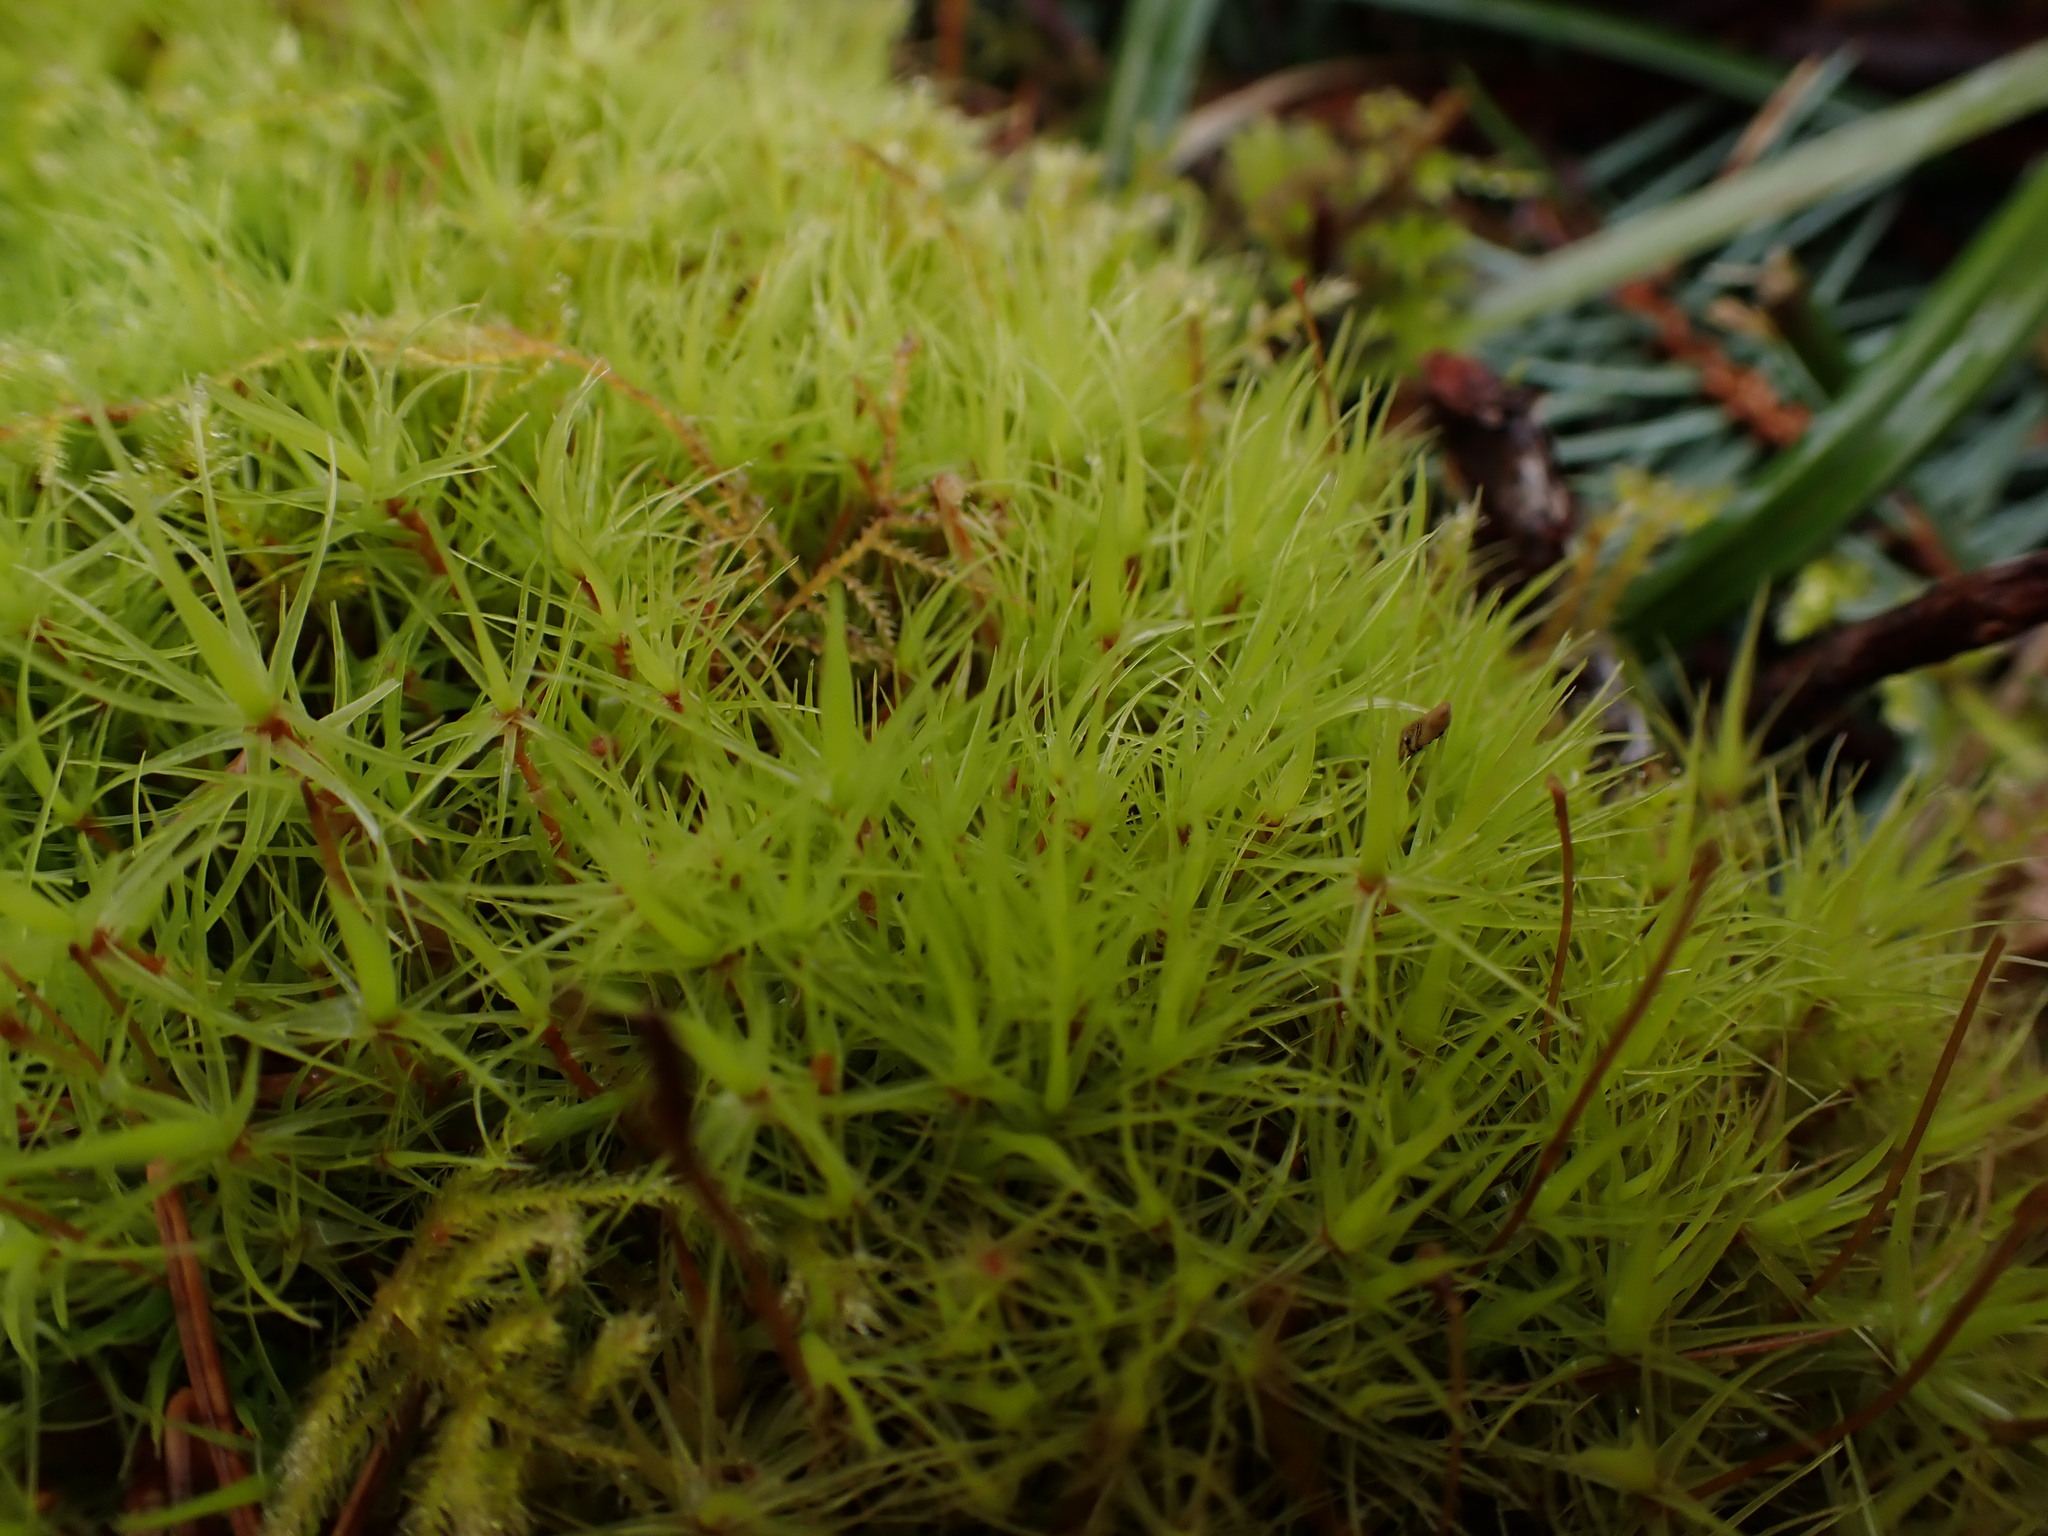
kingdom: Plantae
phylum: Bryophyta
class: Bryopsida
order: Dicranales
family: Dicranaceae
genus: Dicranum
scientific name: Dicranum scoparium
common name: Broom fork-moss
